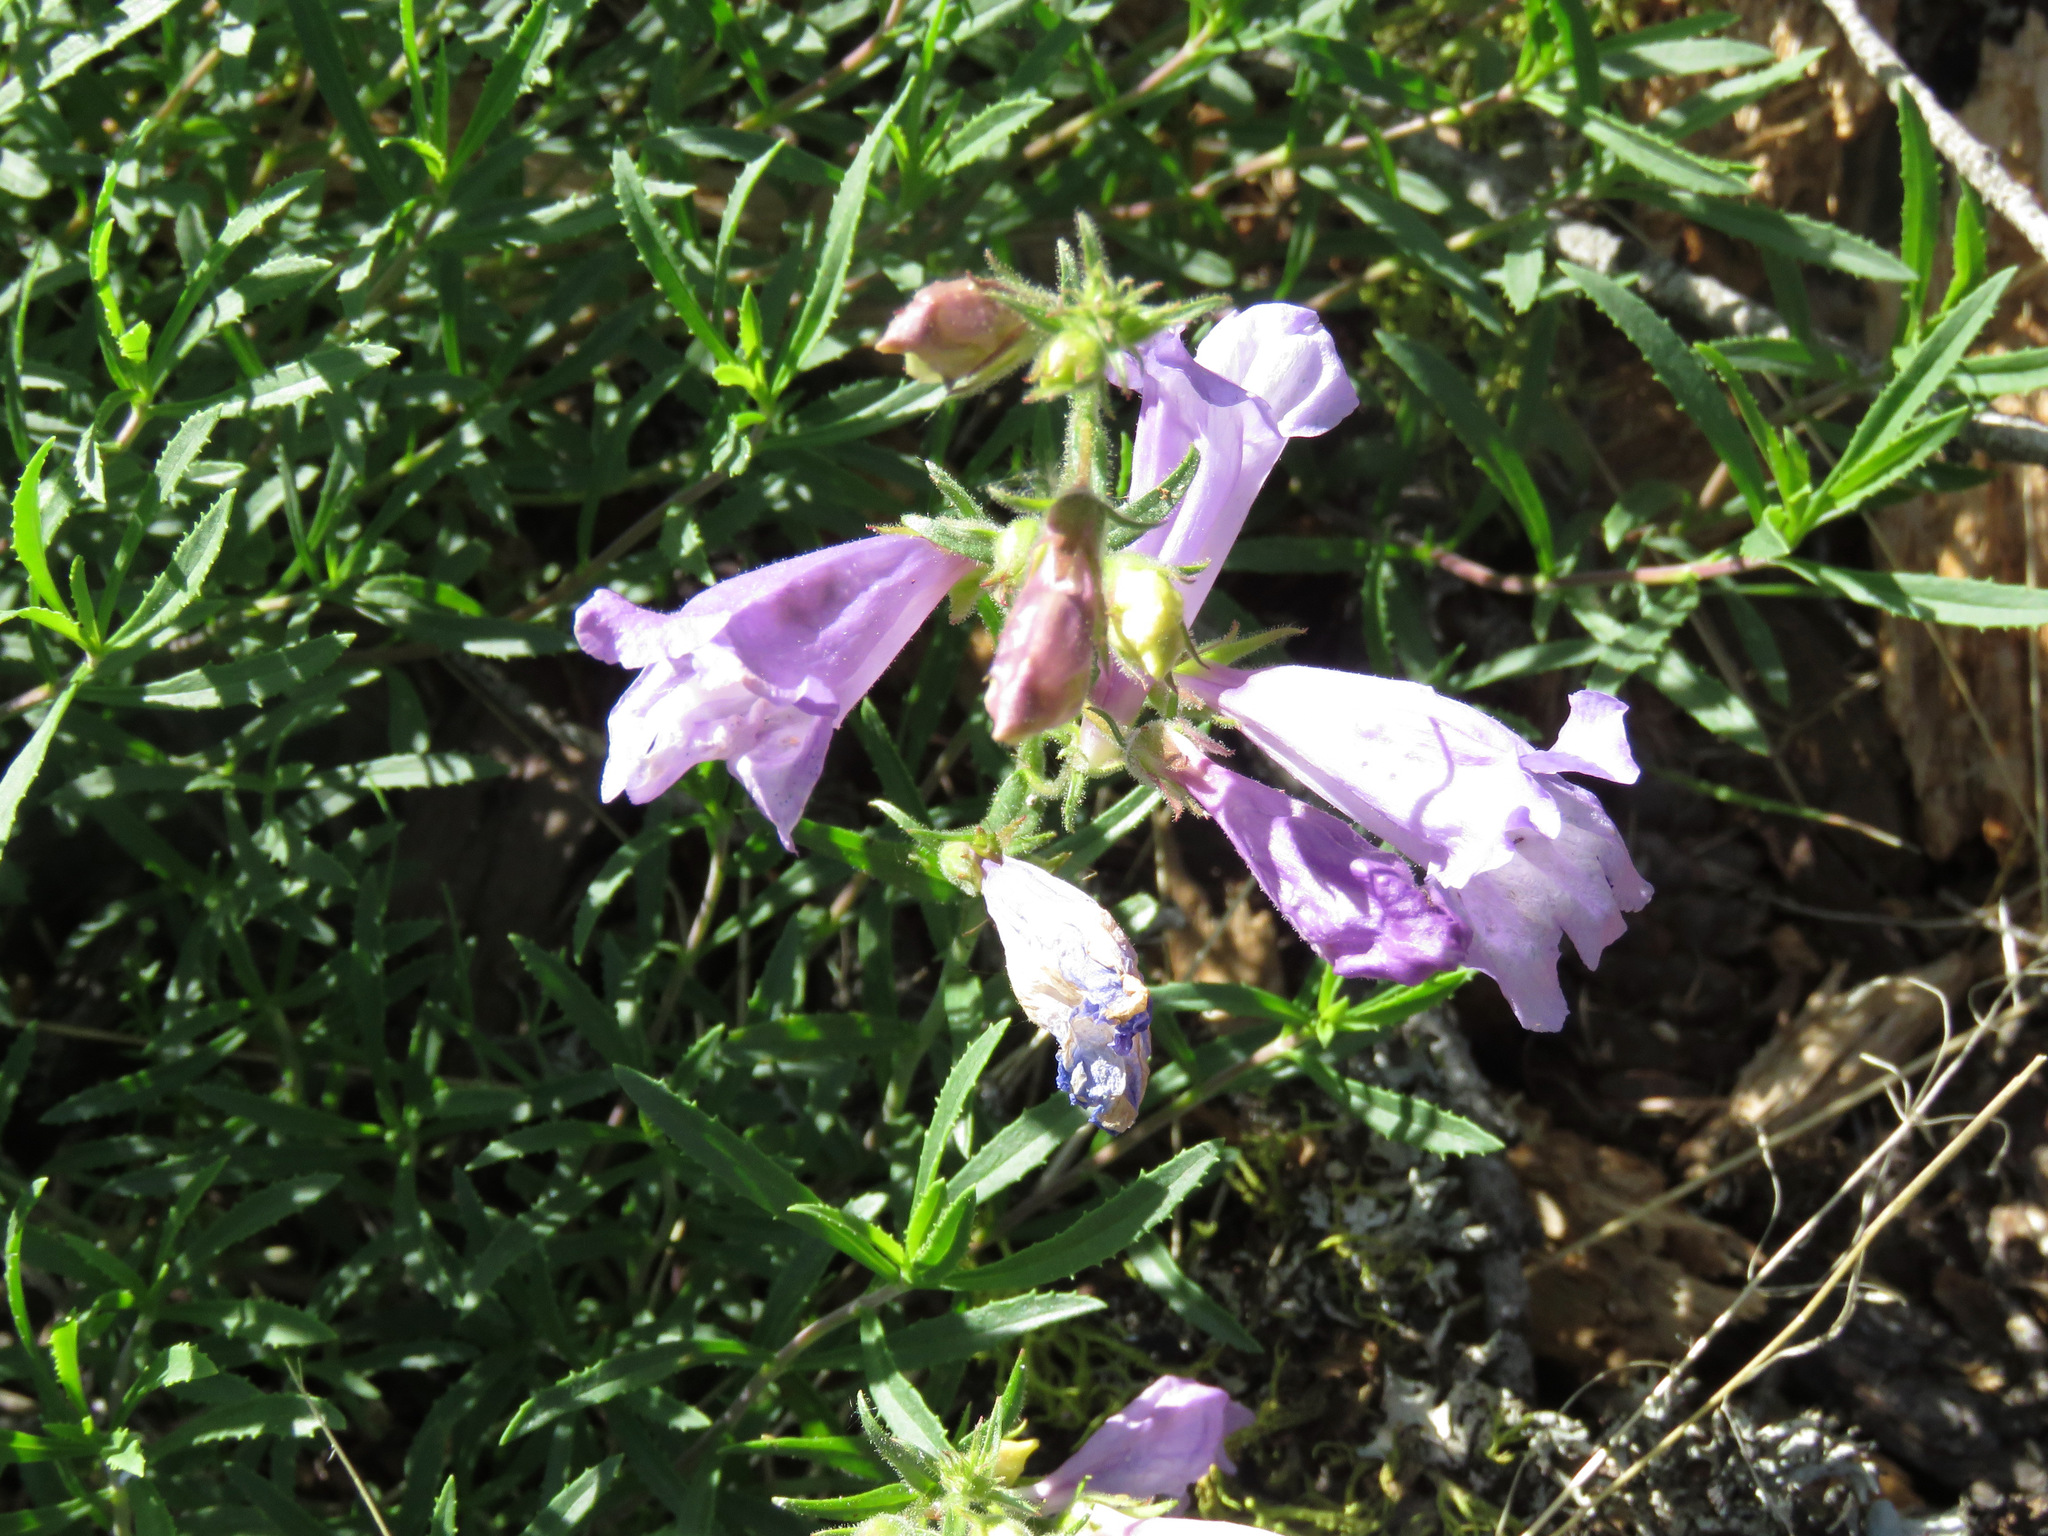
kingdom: Plantae
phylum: Tracheophyta
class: Magnoliopsida
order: Lamiales
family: Plantaginaceae
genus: Penstemon
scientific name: Penstemon fruticosus
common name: Bush penstemon
